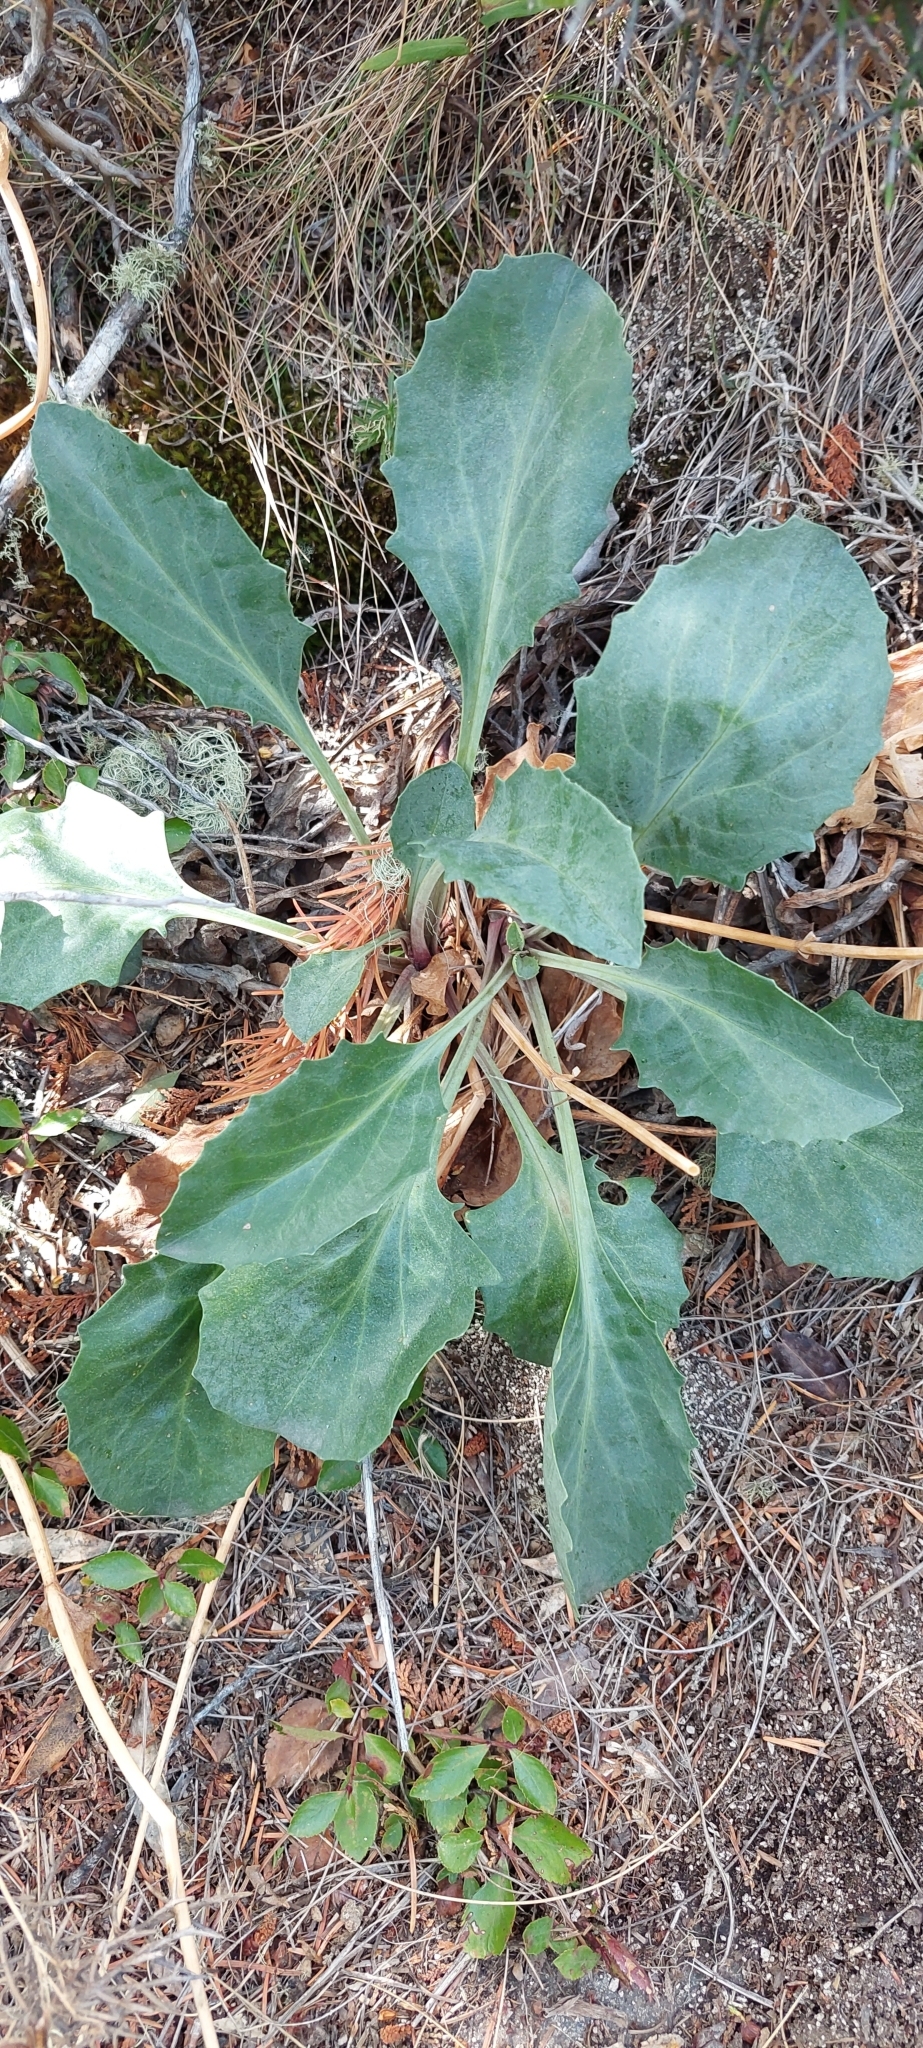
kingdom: Plantae
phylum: Tracheophyta
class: Magnoliopsida
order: Dipsacales
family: Caprifoliaceae
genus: Valeriana
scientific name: Valeriana carnosa
